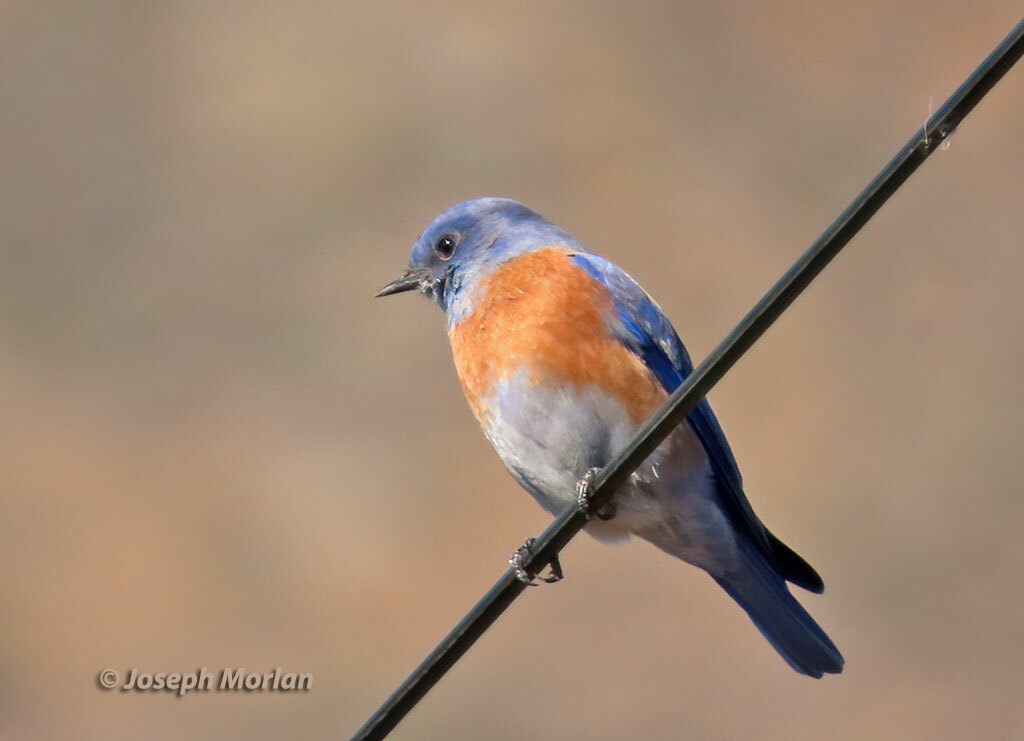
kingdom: Animalia
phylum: Chordata
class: Aves
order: Passeriformes
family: Turdidae
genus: Sialia
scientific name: Sialia mexicana
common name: Western bluebird
